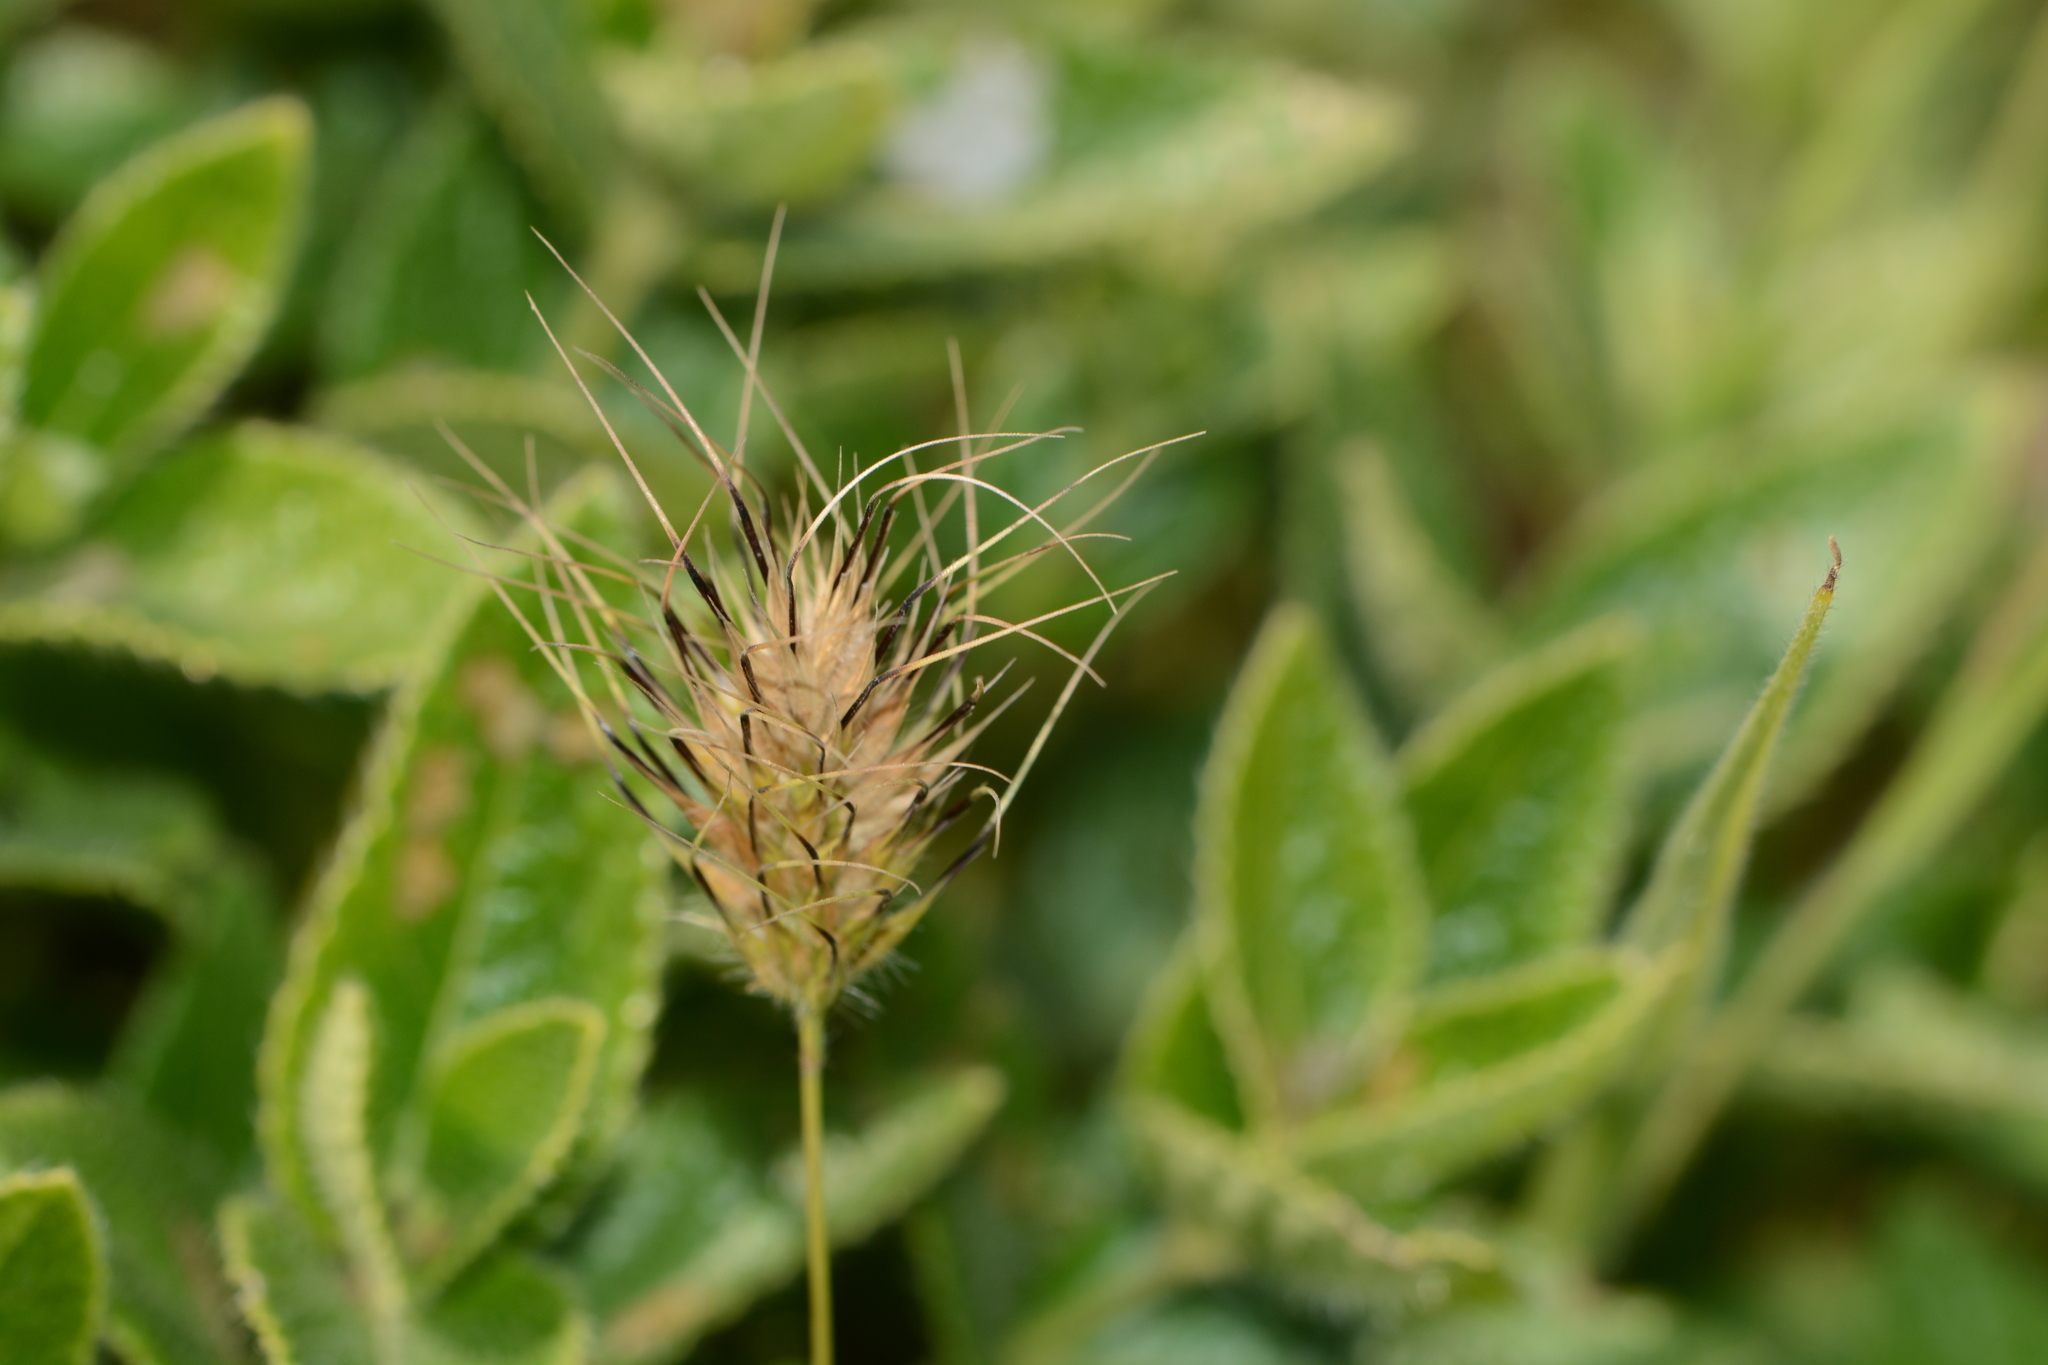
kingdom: Plantae
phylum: Tracheophyta
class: Liliopsida
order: Poales
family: Poaceae
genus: Jansenella
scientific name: Jansenella griffithiana
